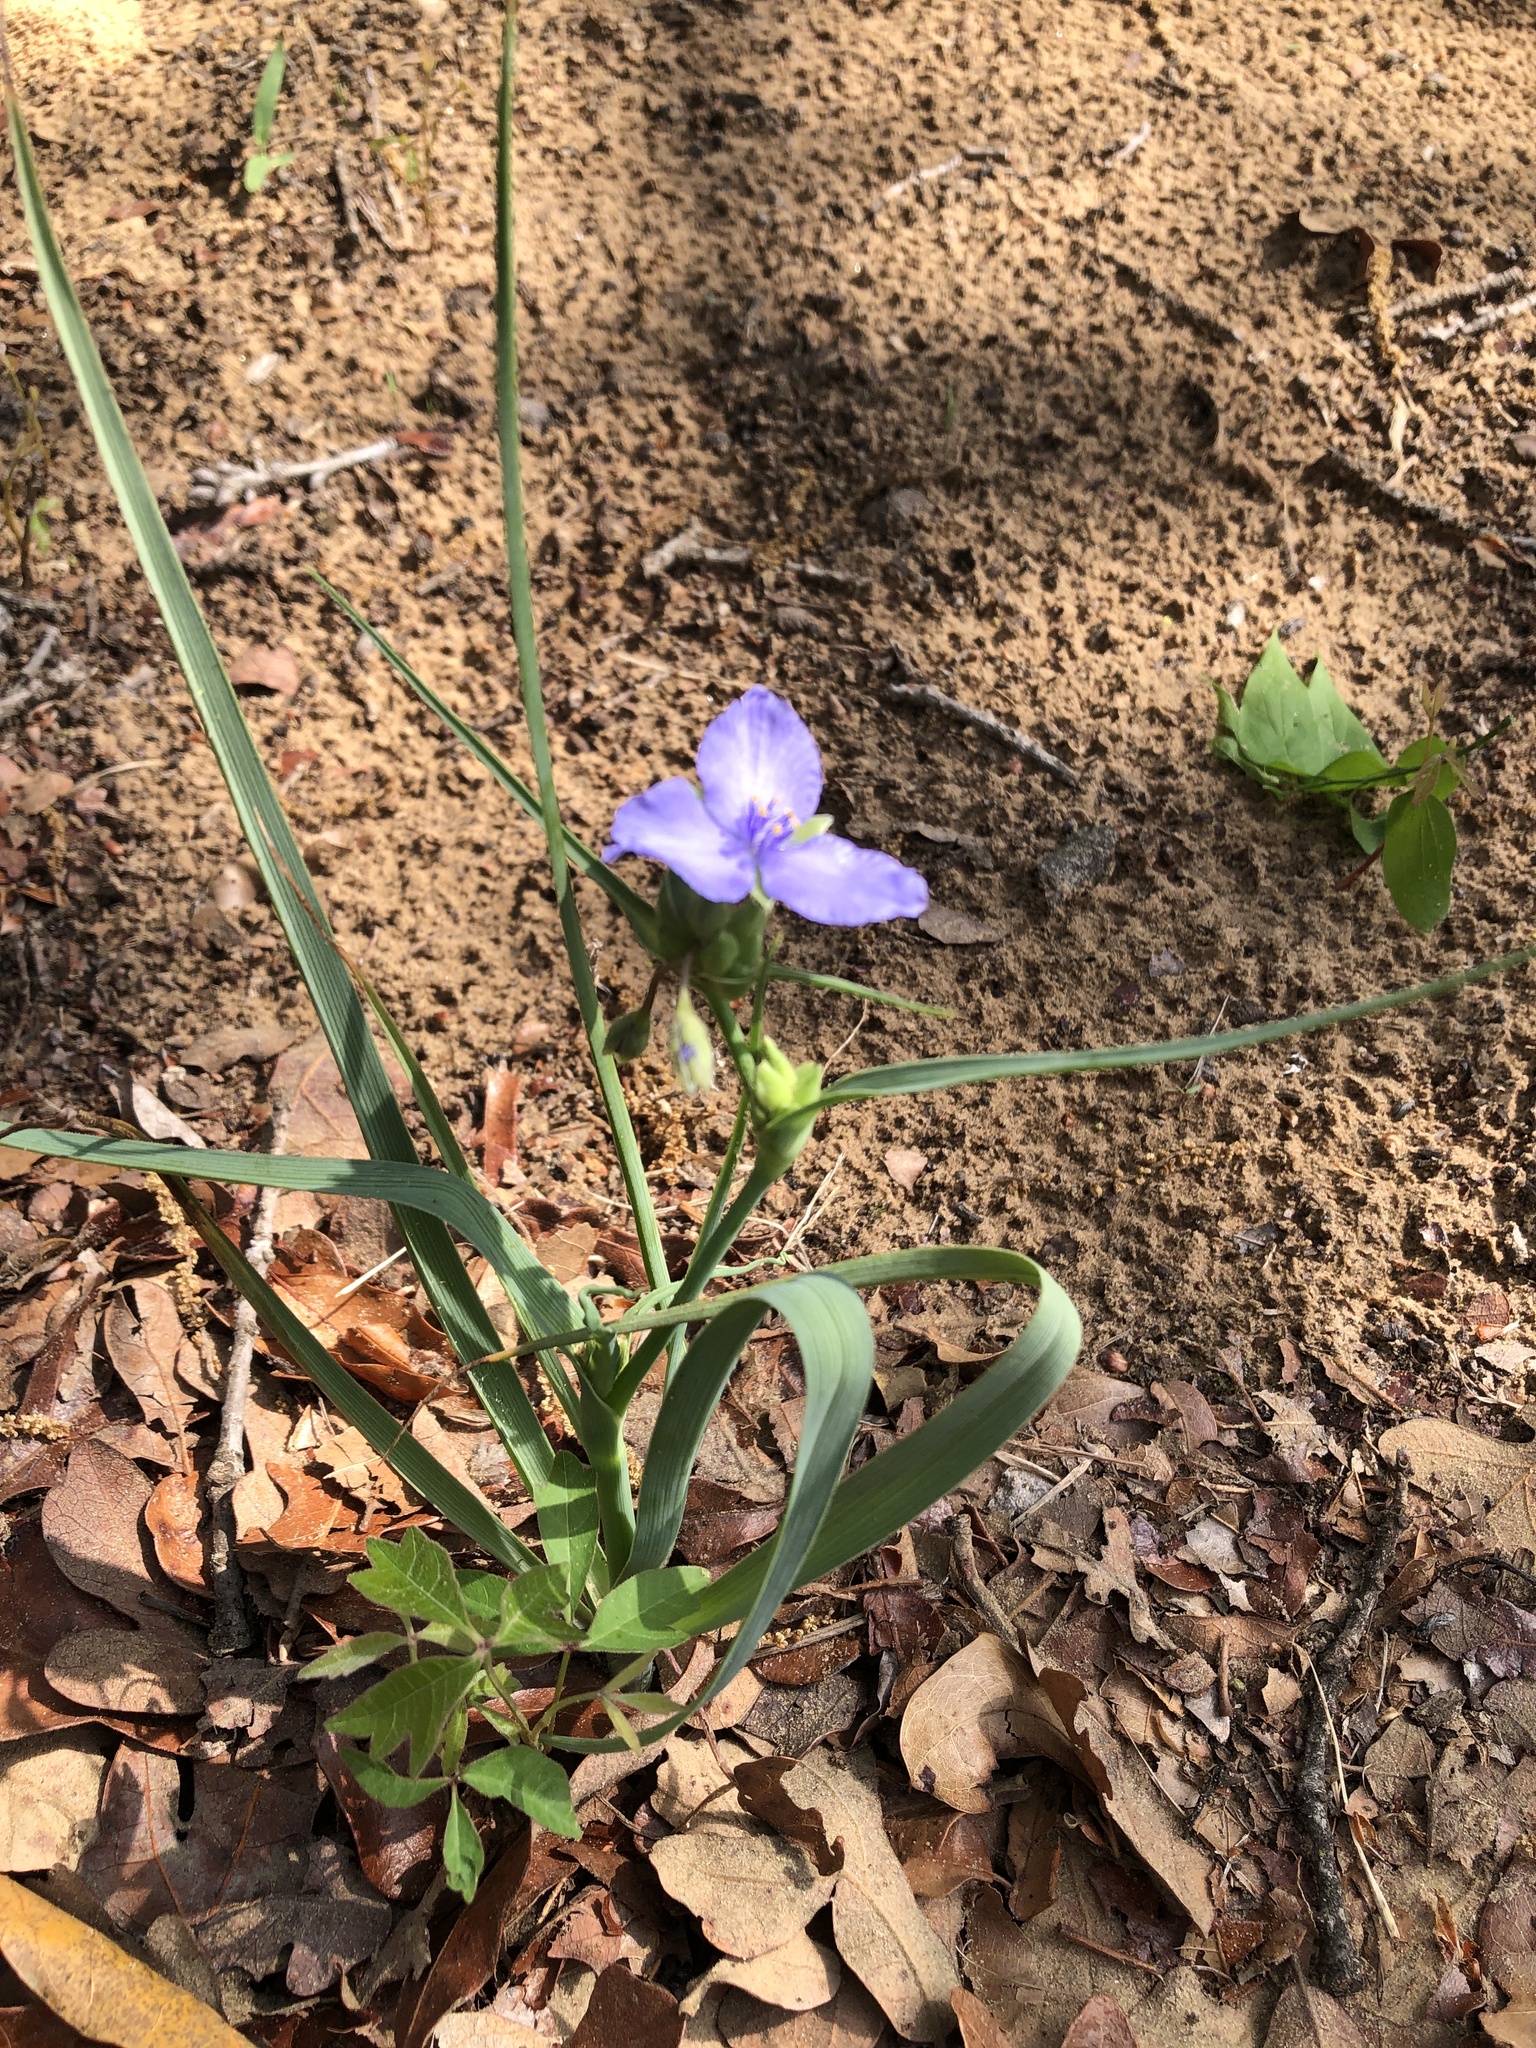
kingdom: Plantae
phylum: Tracheophyta
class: Liliopsida
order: Commelinales
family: Commelinaceae
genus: Tradescantia
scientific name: Tradescantia occidentalis
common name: Prairie spiderwort
